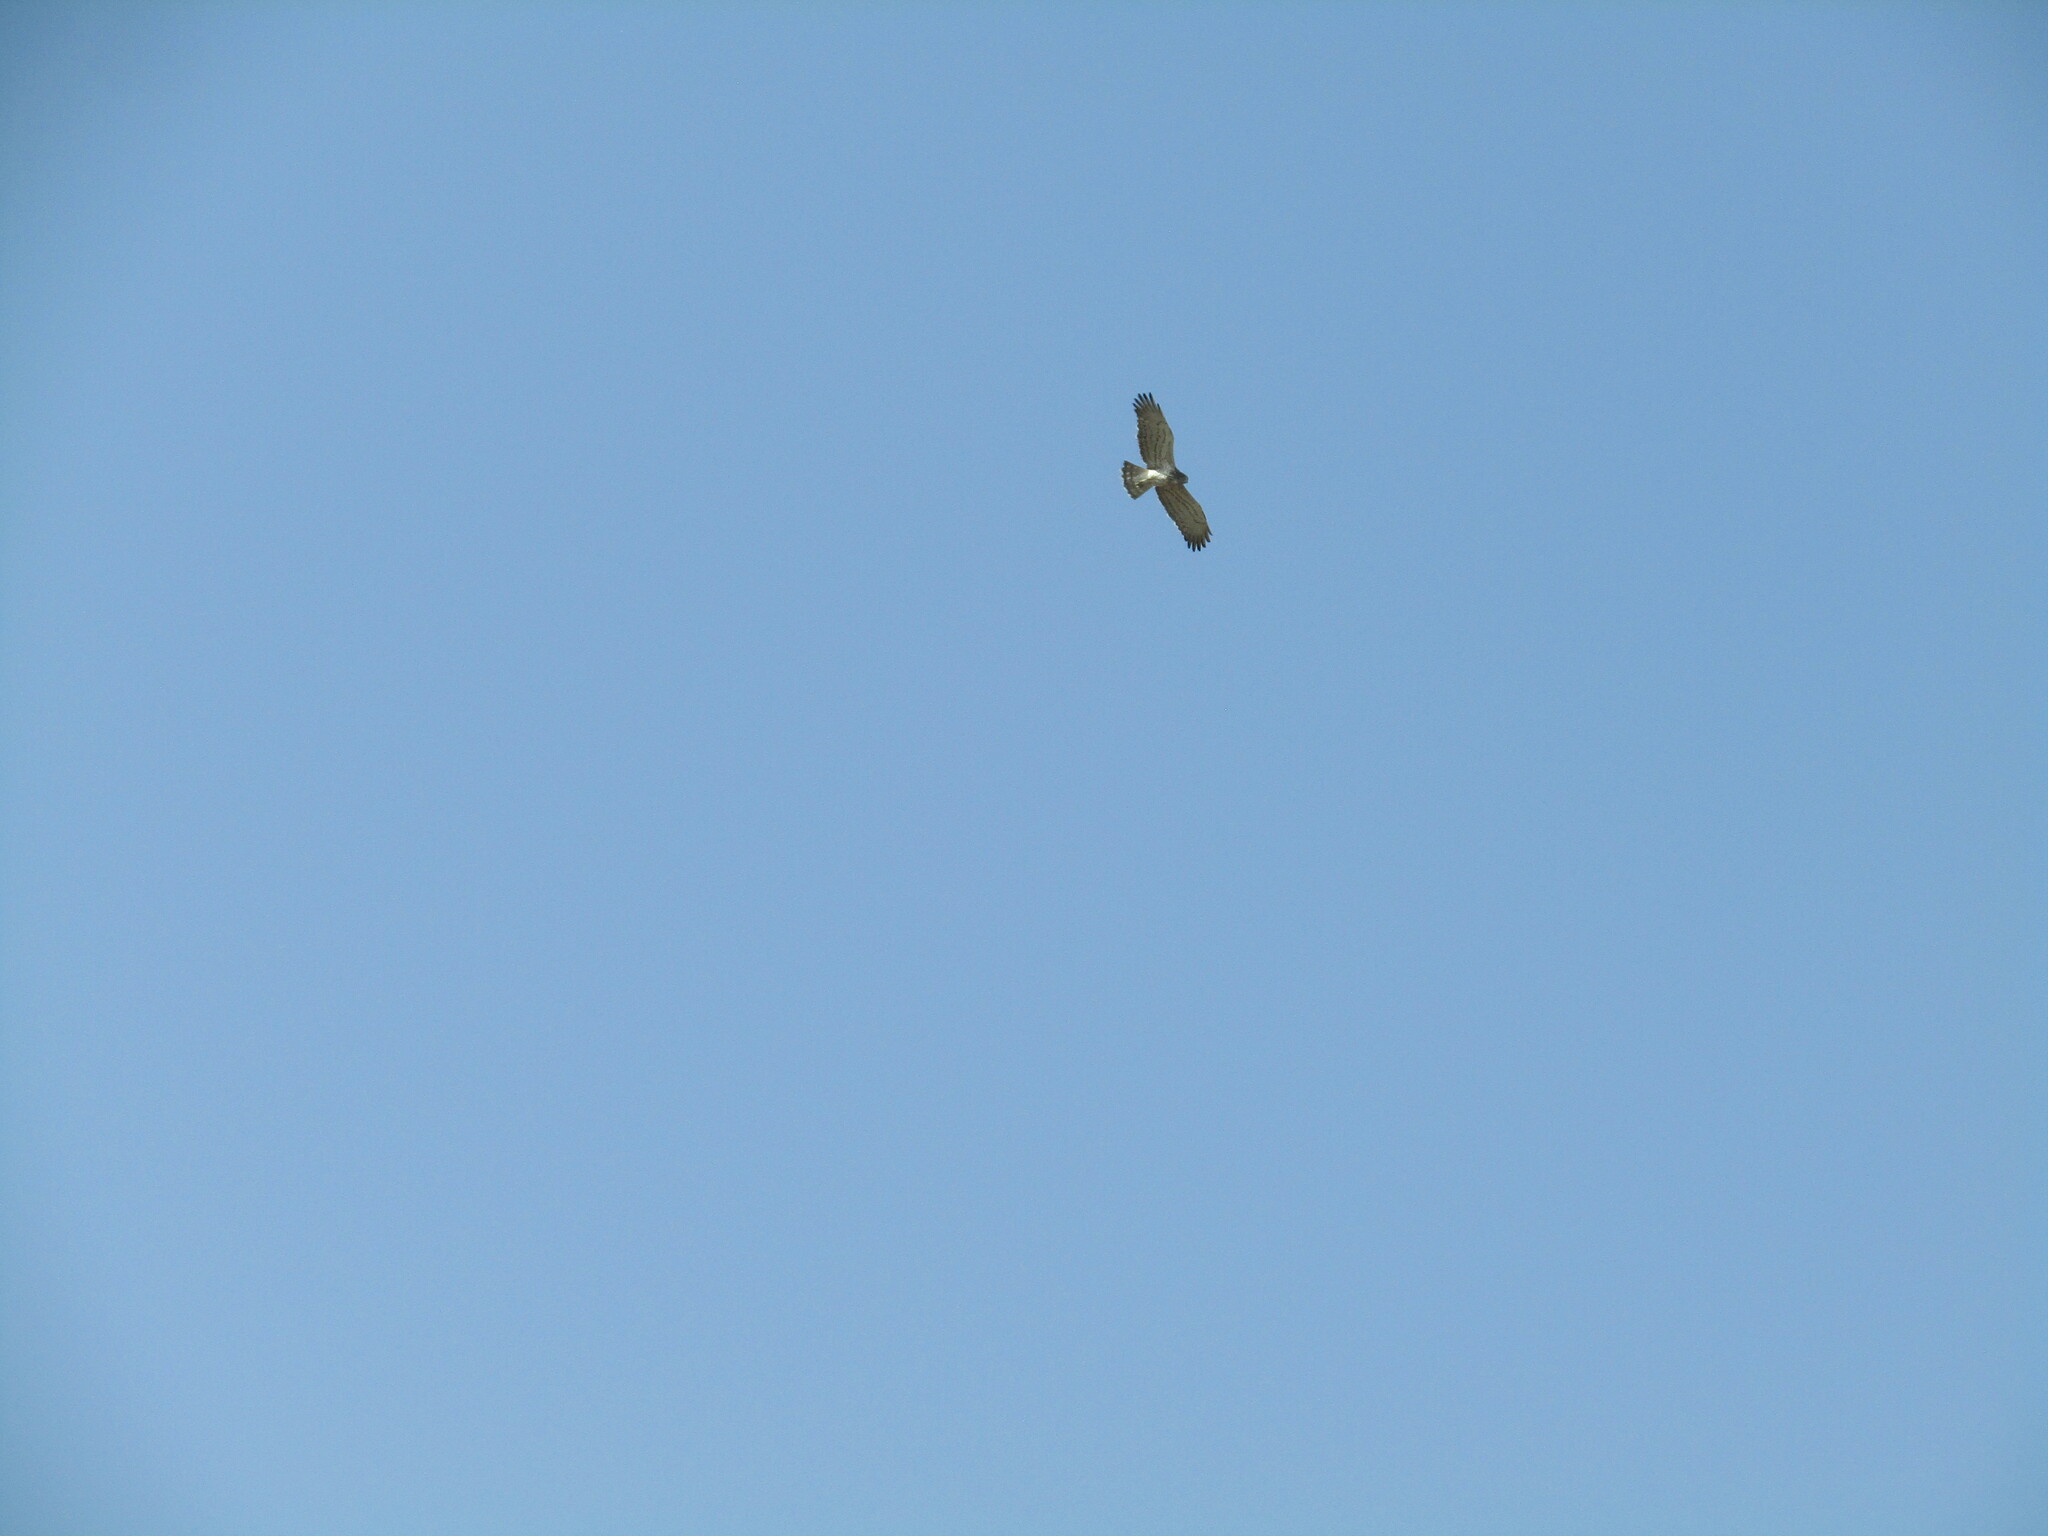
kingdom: Animalia
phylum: Chordata
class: Aves
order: Accipitriformes
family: Accipitridae
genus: Circaetus
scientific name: Circaetus gallicus
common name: Short-toed snake eagle
